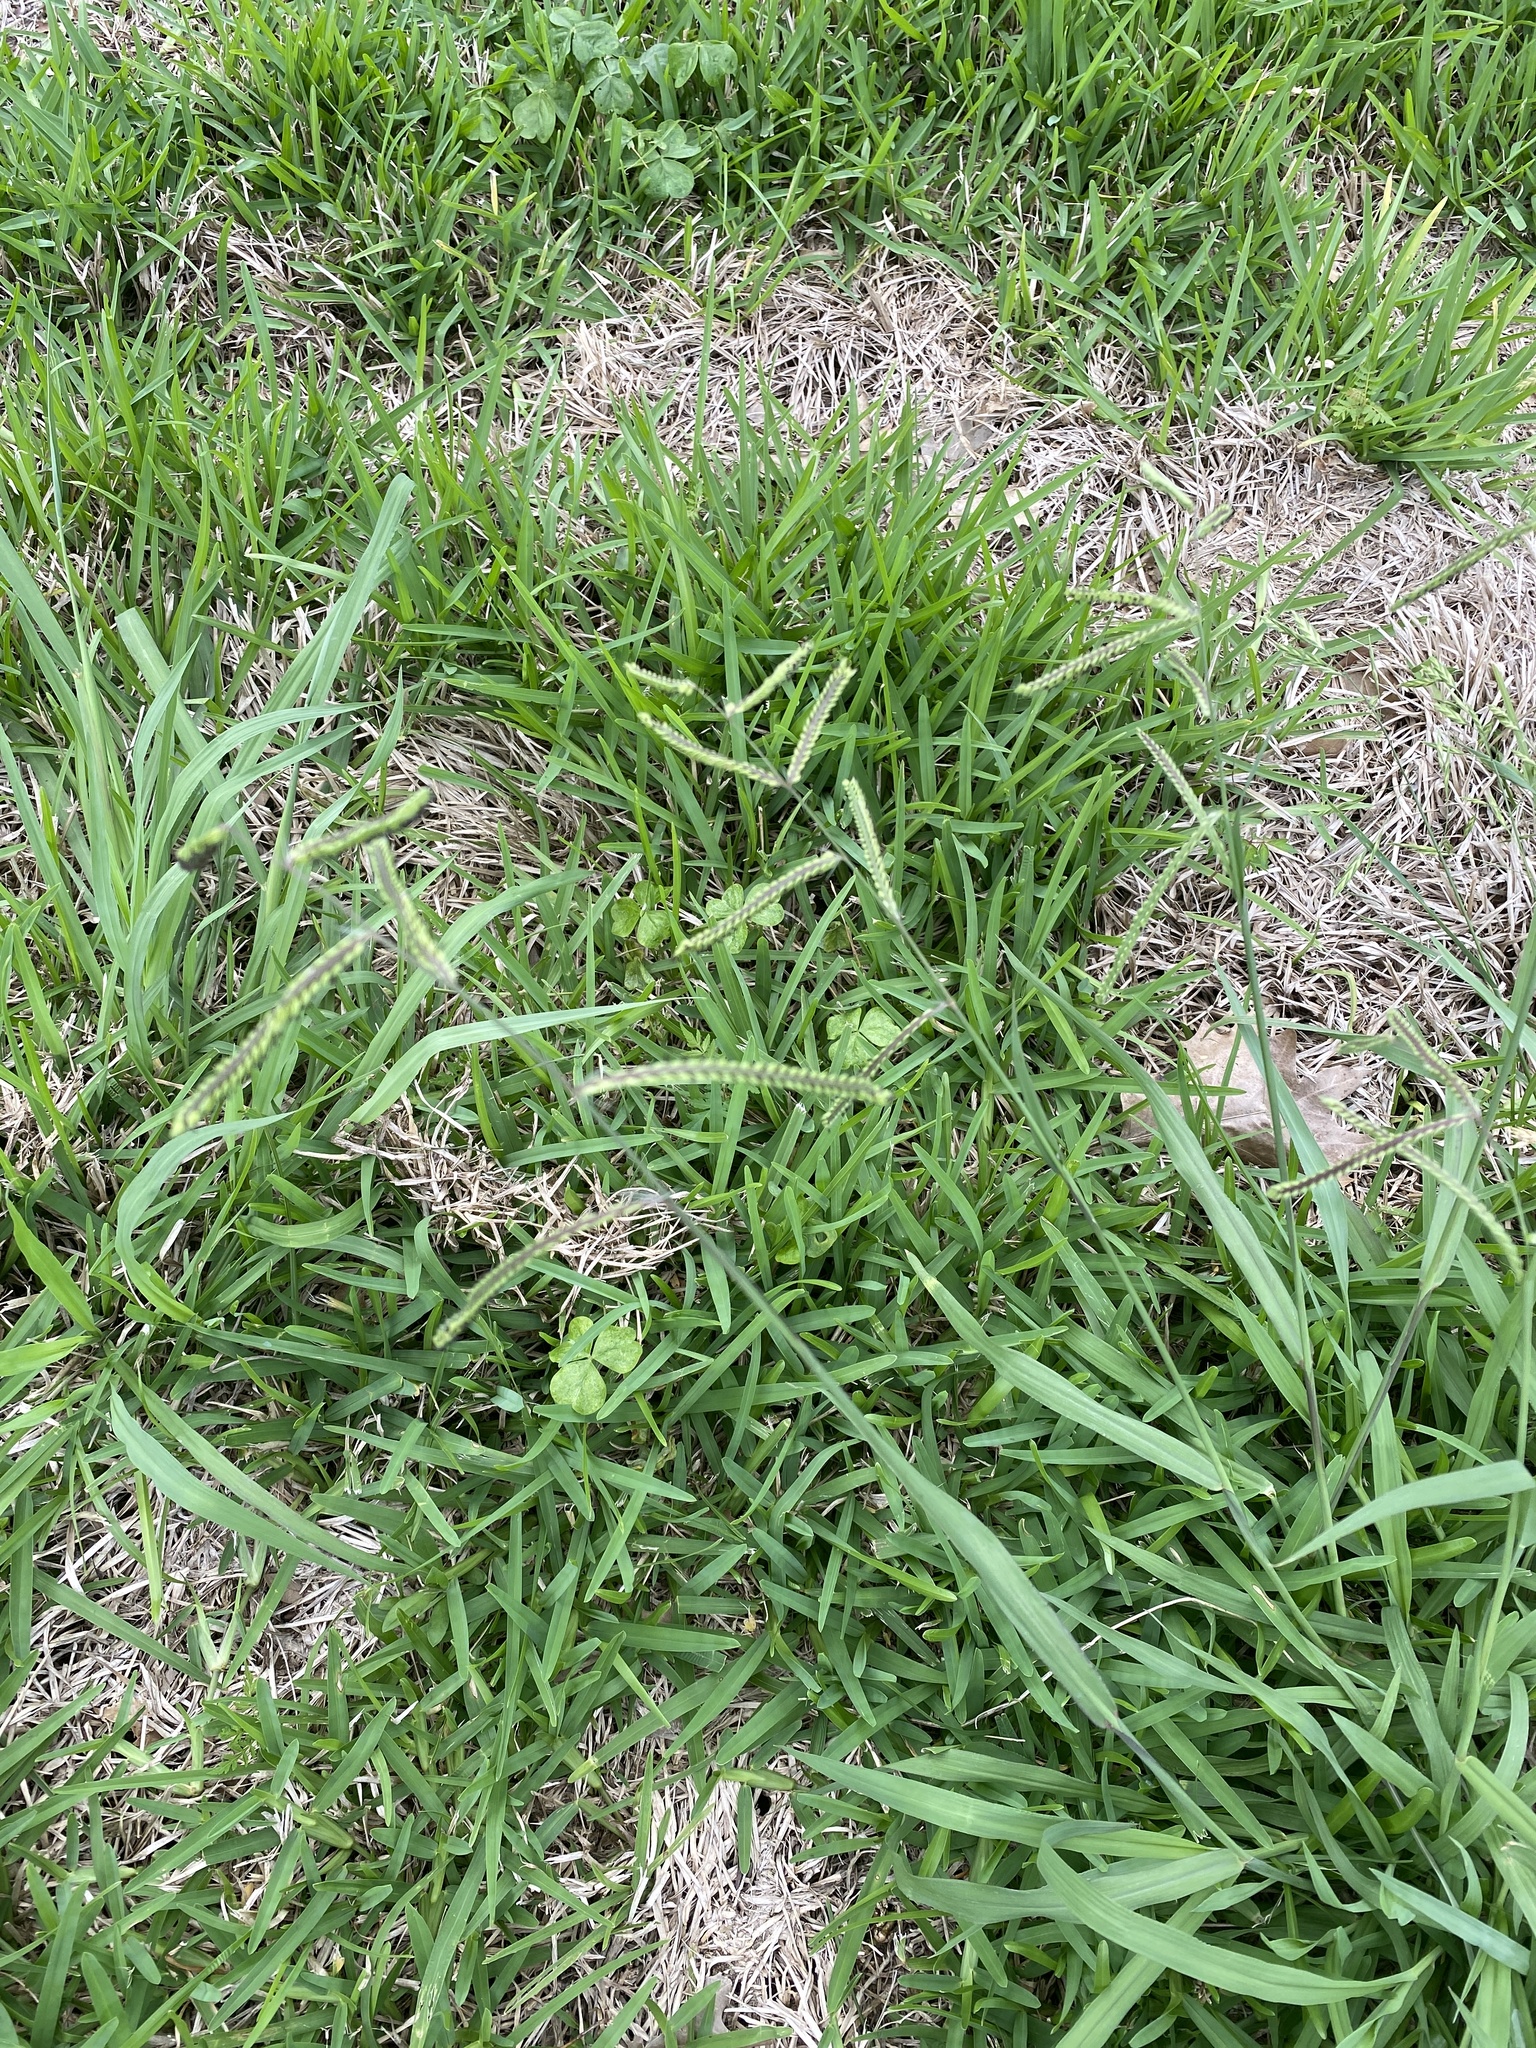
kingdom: Plantae
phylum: Tracheophyta
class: Liliopsida
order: Poales
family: Poaceae
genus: Paspalum
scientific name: Paspalum dilatatum
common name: Dallisgrass
